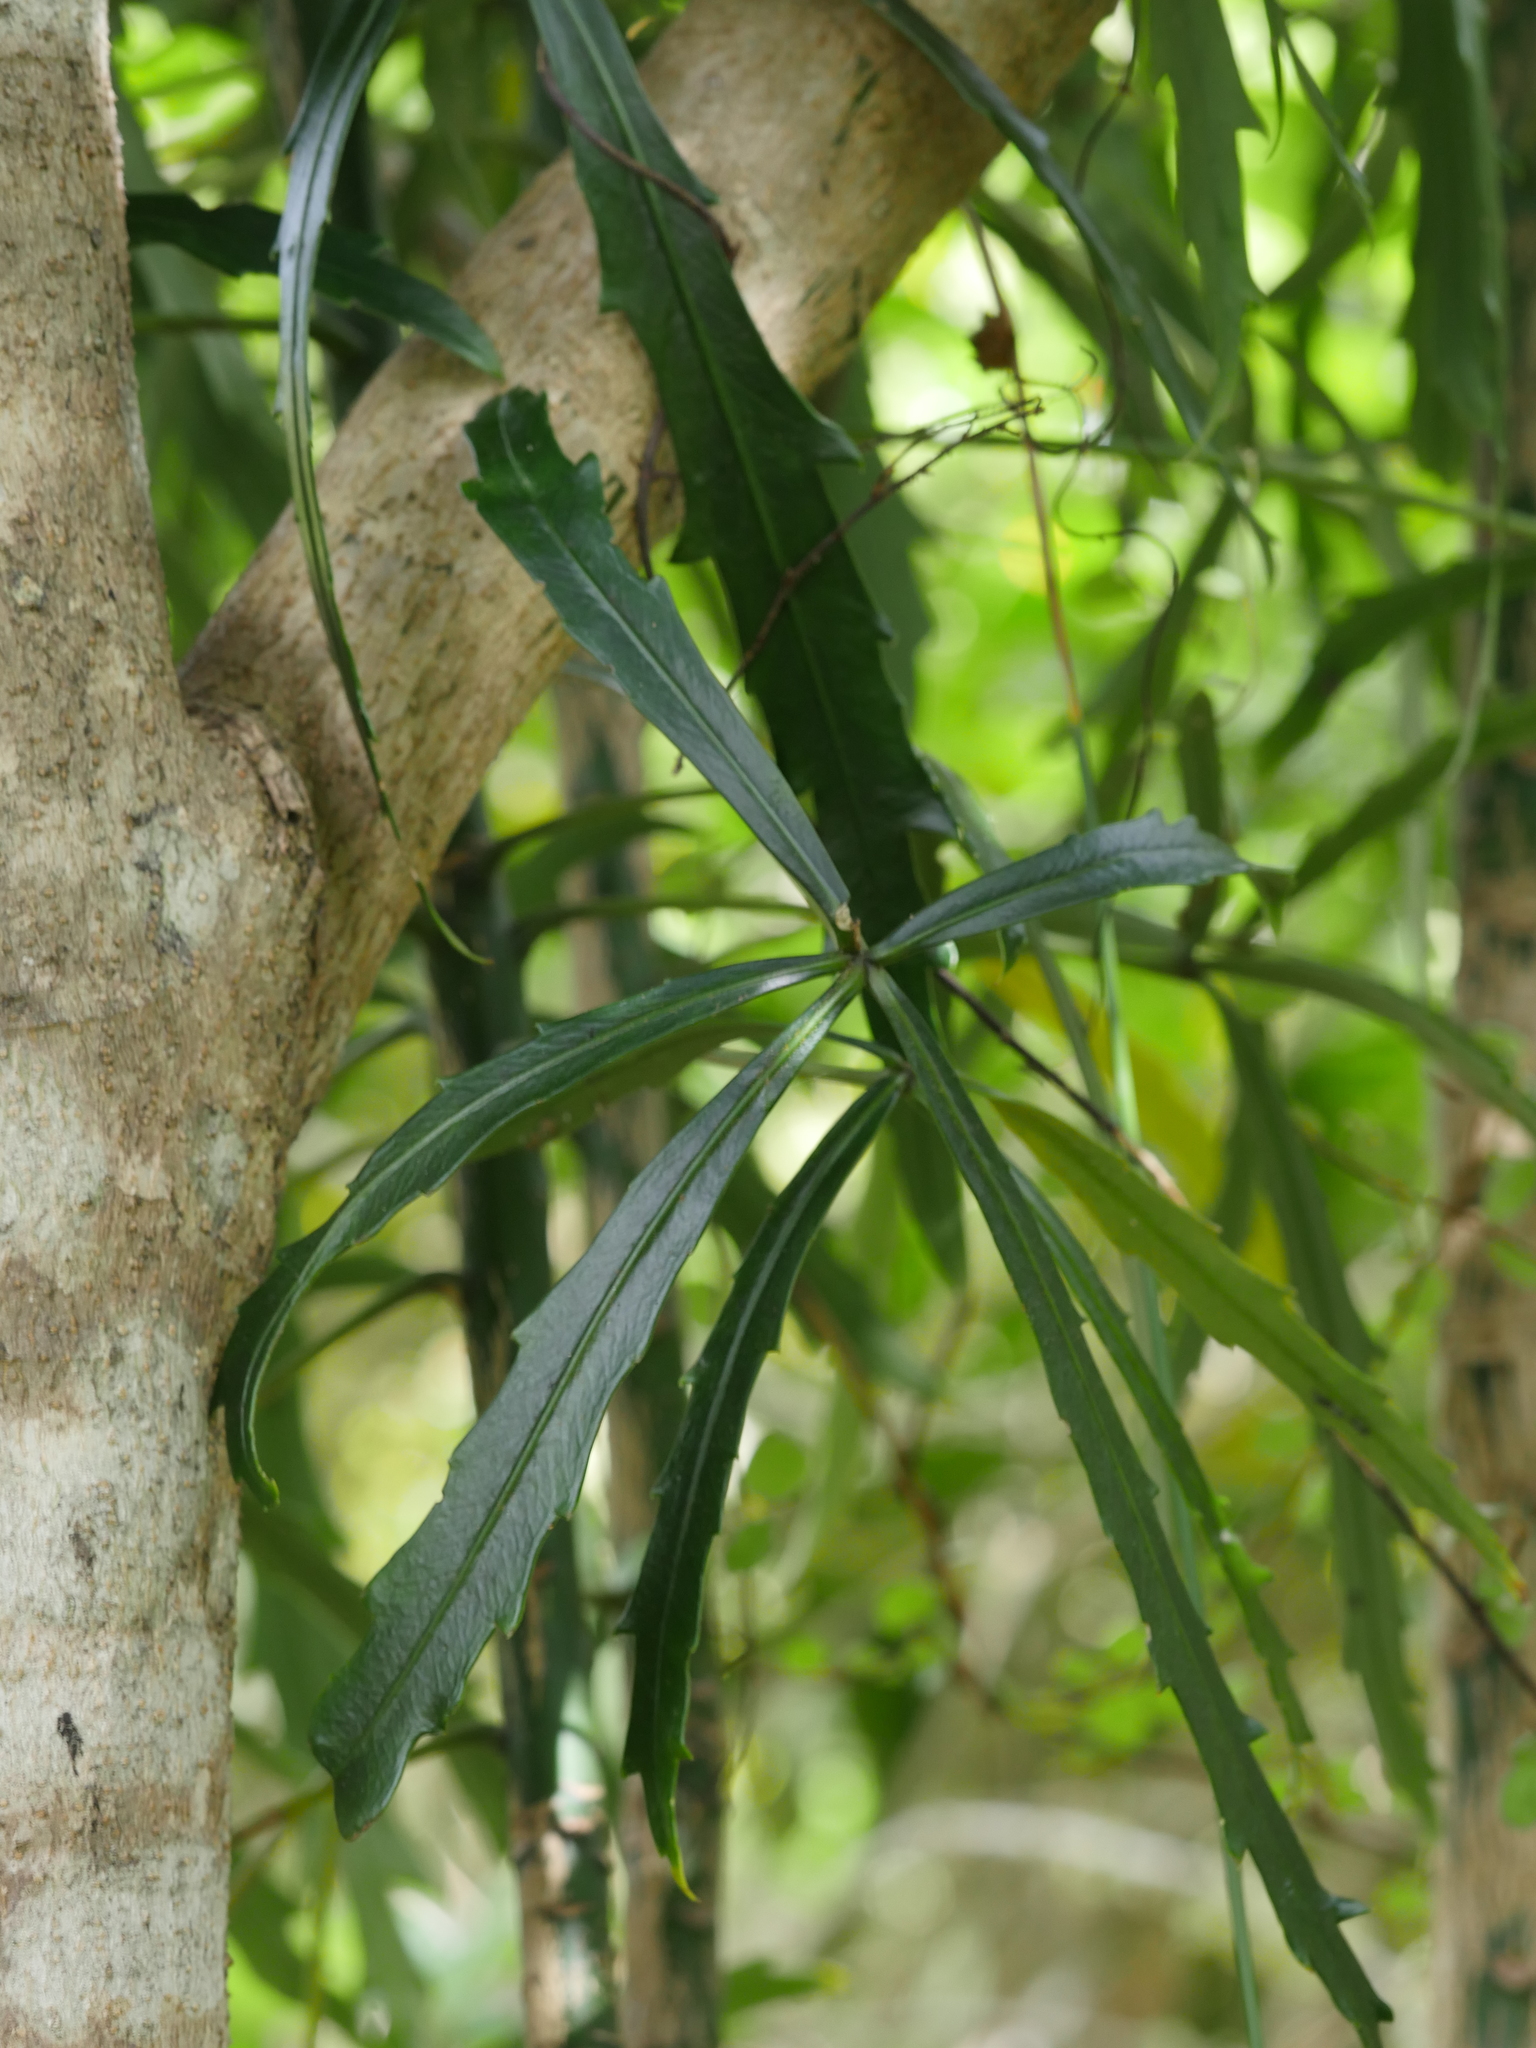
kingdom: Plantae
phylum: Tracheophyta
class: Magnoliopsida
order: Apiales
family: Araliaceae
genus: Pseudopanax
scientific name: Pseudopanax
